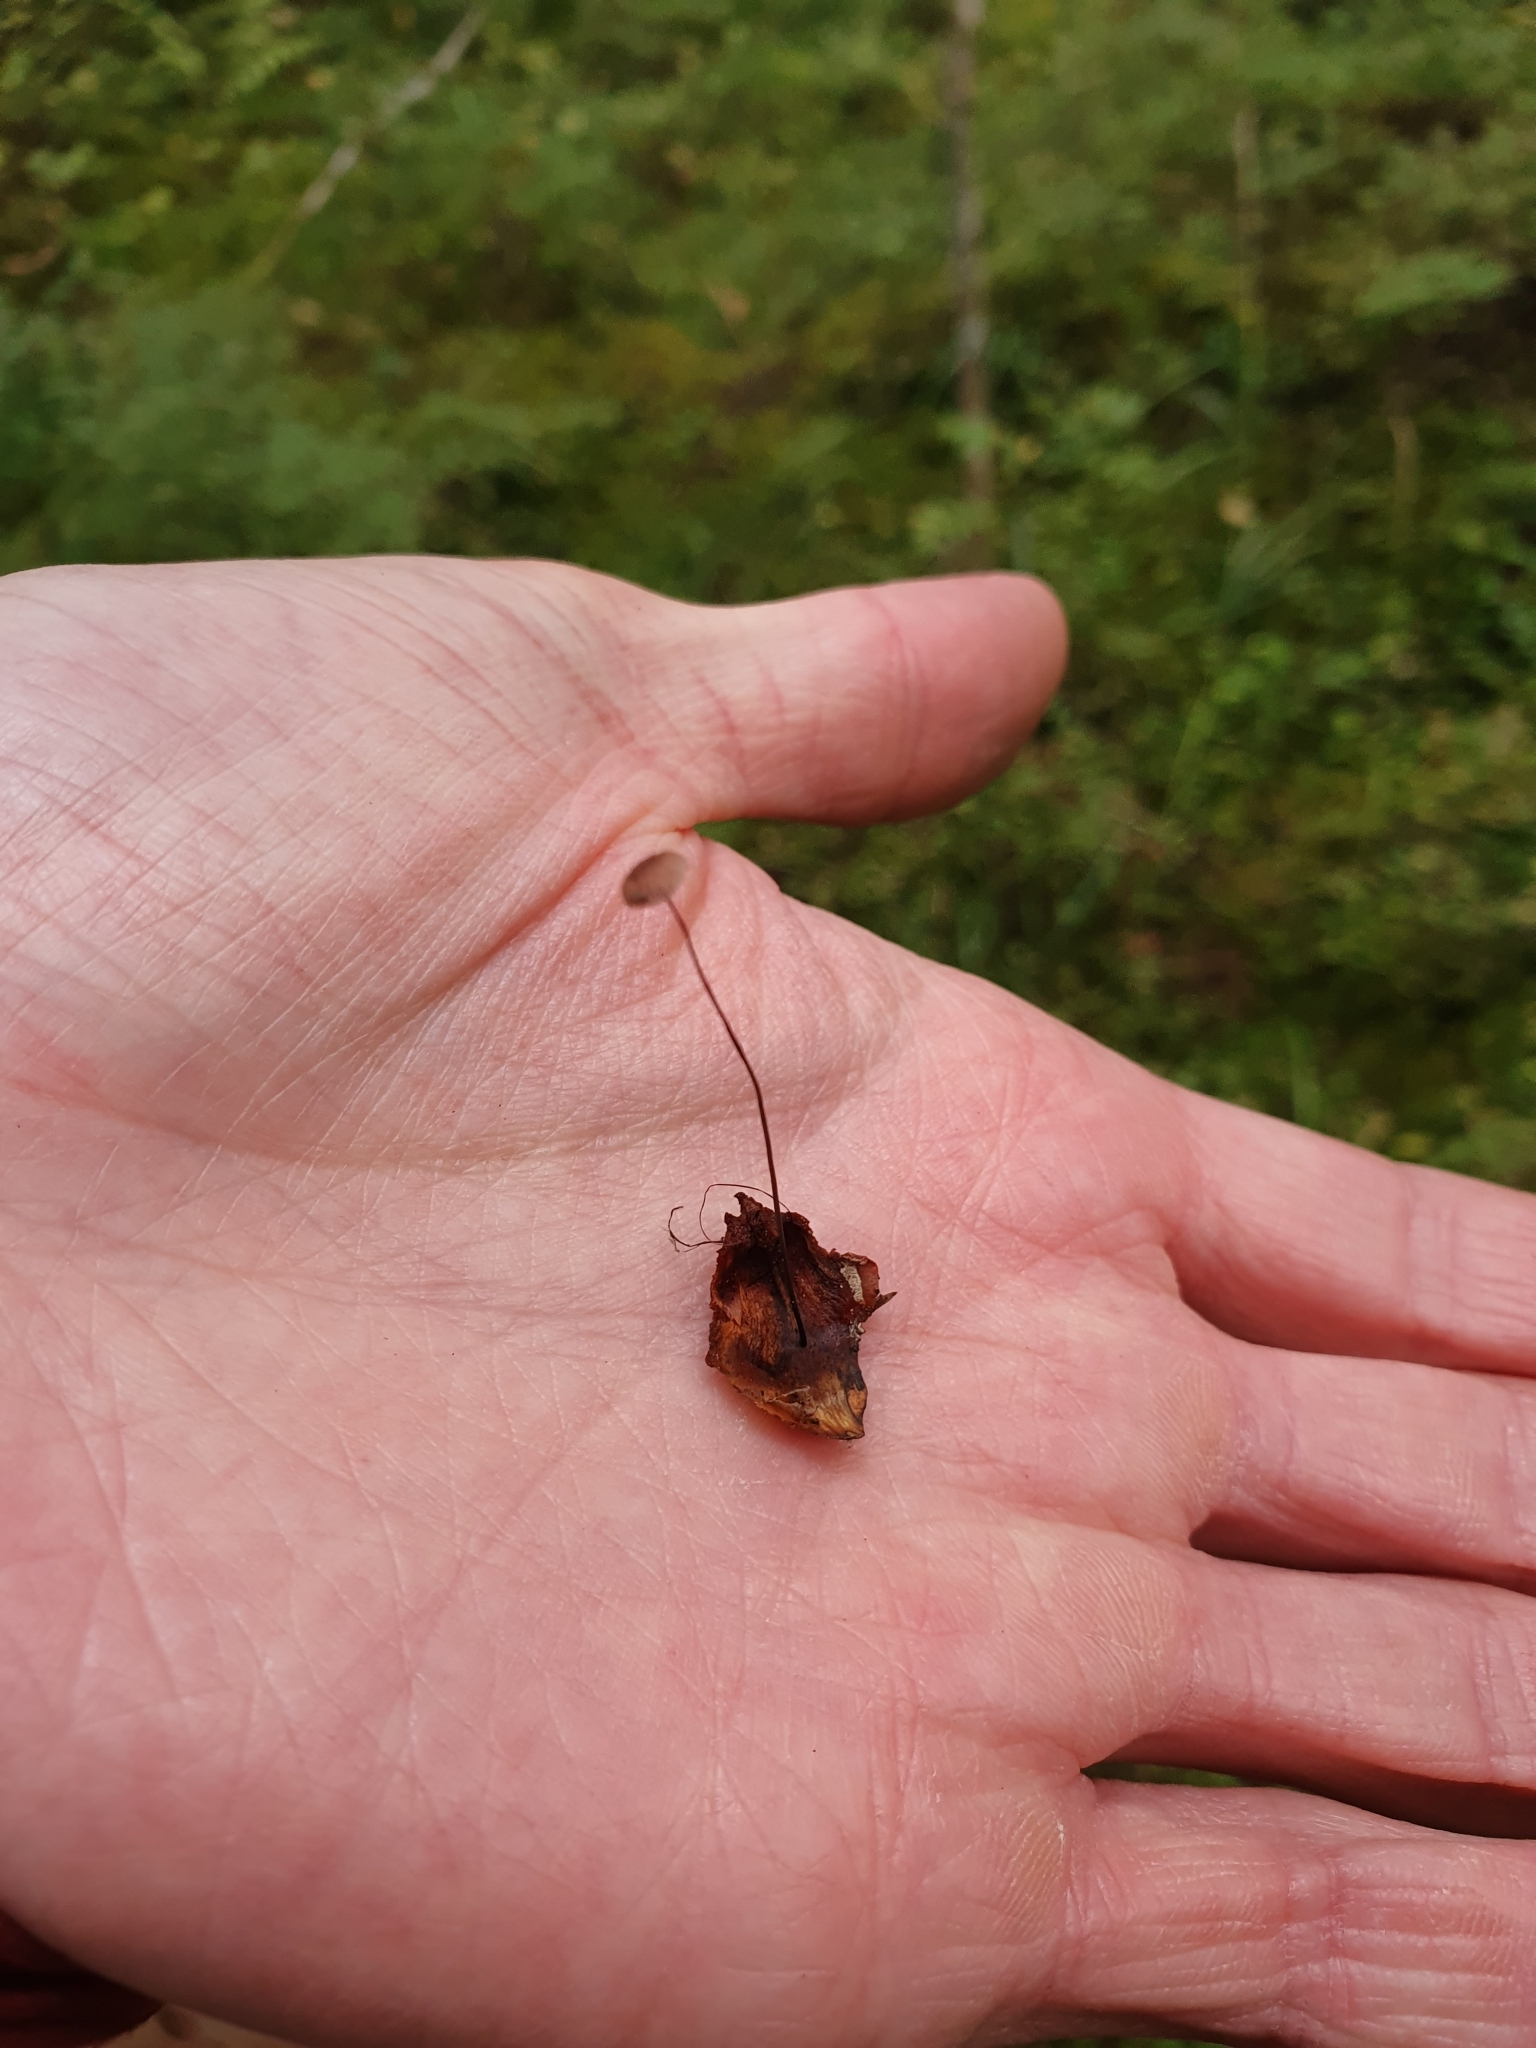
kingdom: Fungi
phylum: Basidiomycota
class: Agaricomycetes
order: Agaricales
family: Omphalotaceae
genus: Gymnopus
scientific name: Gymnopus androsaceus
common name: Horse-hair fungus
